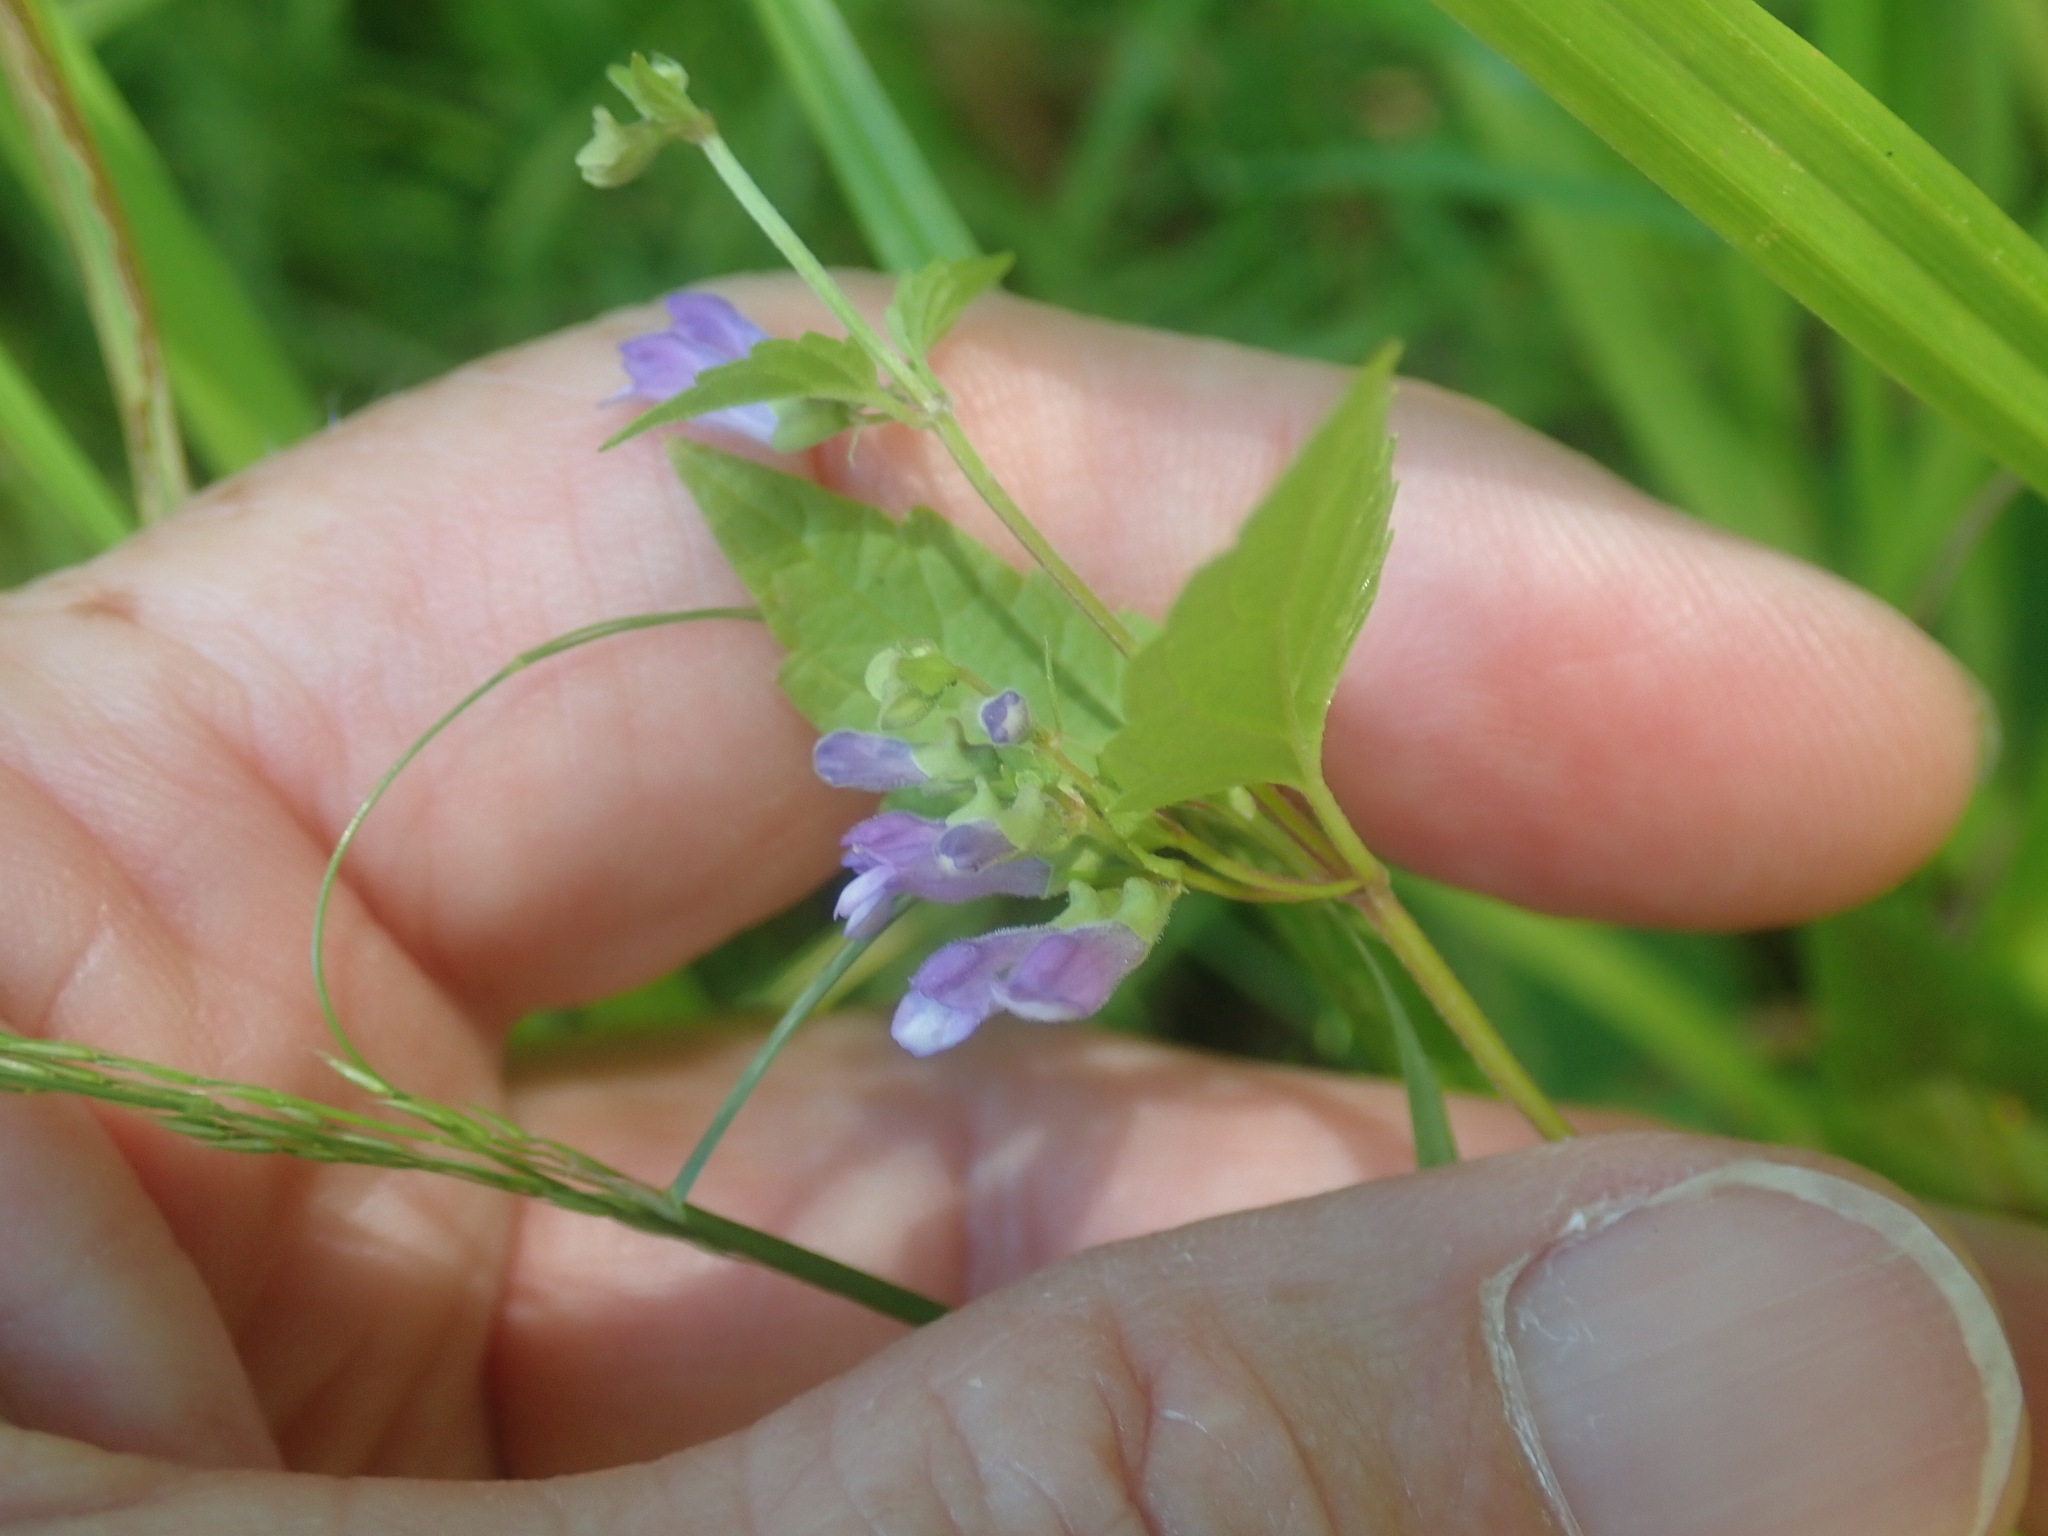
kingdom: Plantae
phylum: Tracheophyta
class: Magnoliopsida
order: Lamiales
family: Lamiaceae
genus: Scutellaria
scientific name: Scutellaria lateriflora
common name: Blue skullcap
